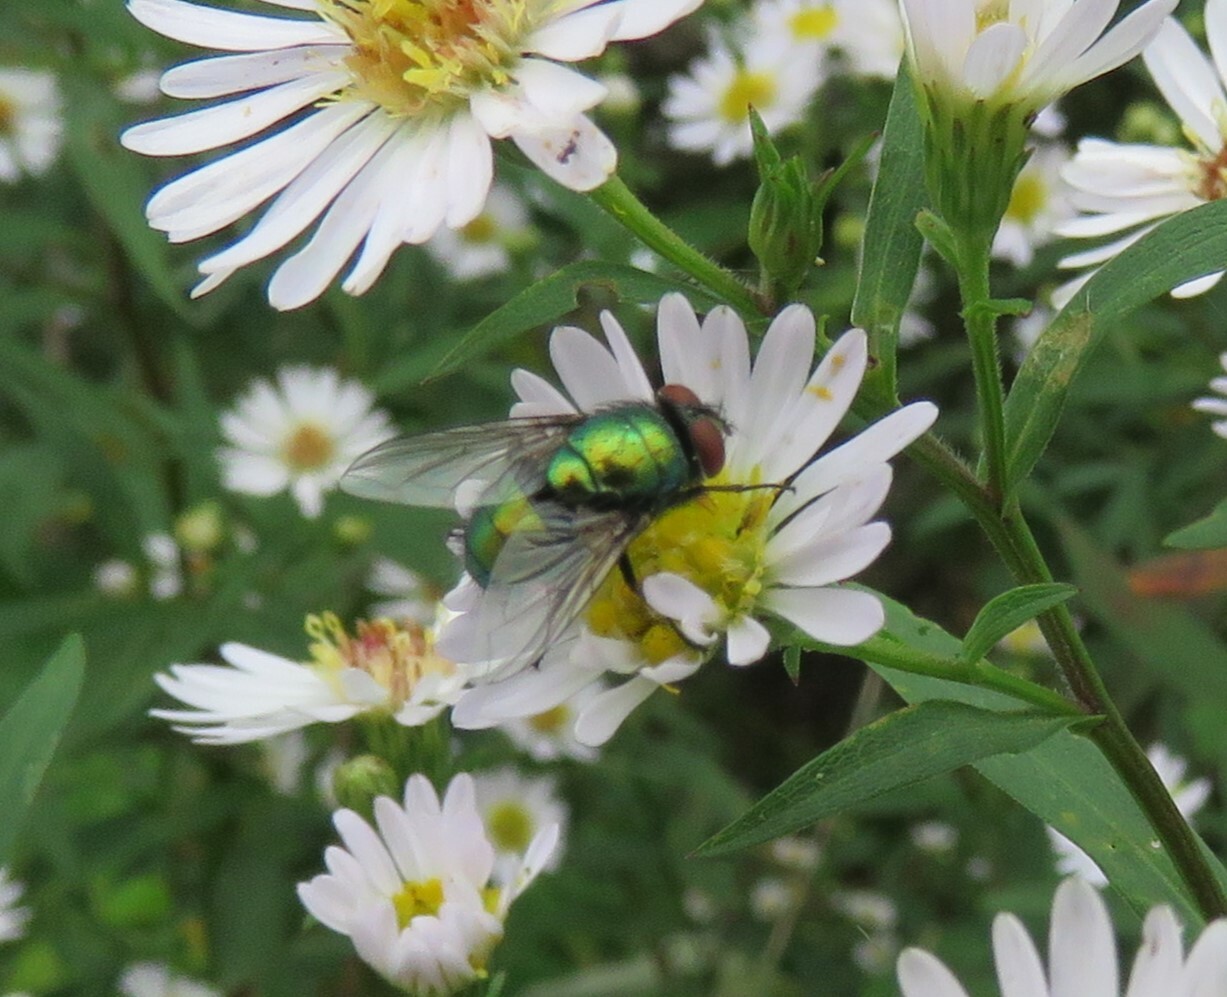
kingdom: Animalia
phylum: Arthropoda
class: Insecta
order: Diptera
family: Calliphoridae
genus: Lucilia
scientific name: Lucilia sericata
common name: Blow fly
